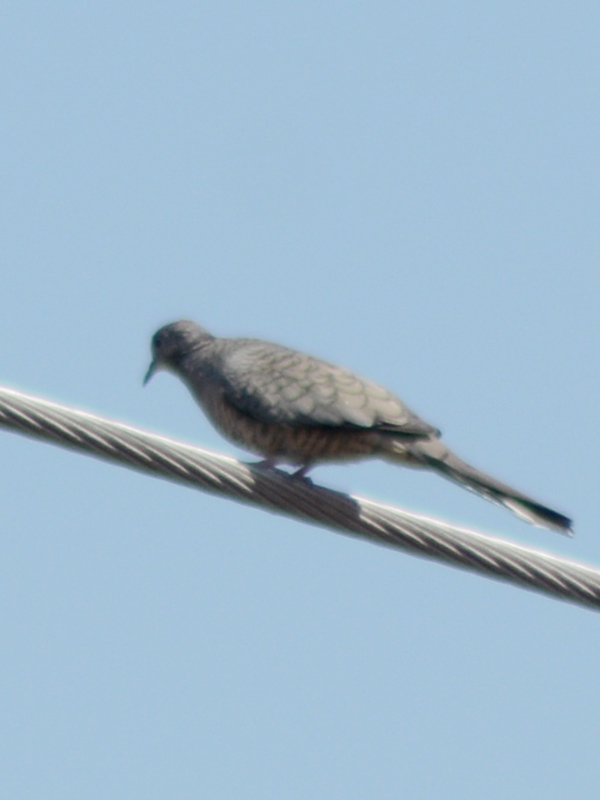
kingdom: Animalia
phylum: Chordata
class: Aves
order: Columbiformes
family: Columbidae
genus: Columbina
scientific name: Columbina inca
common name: Inca dove
